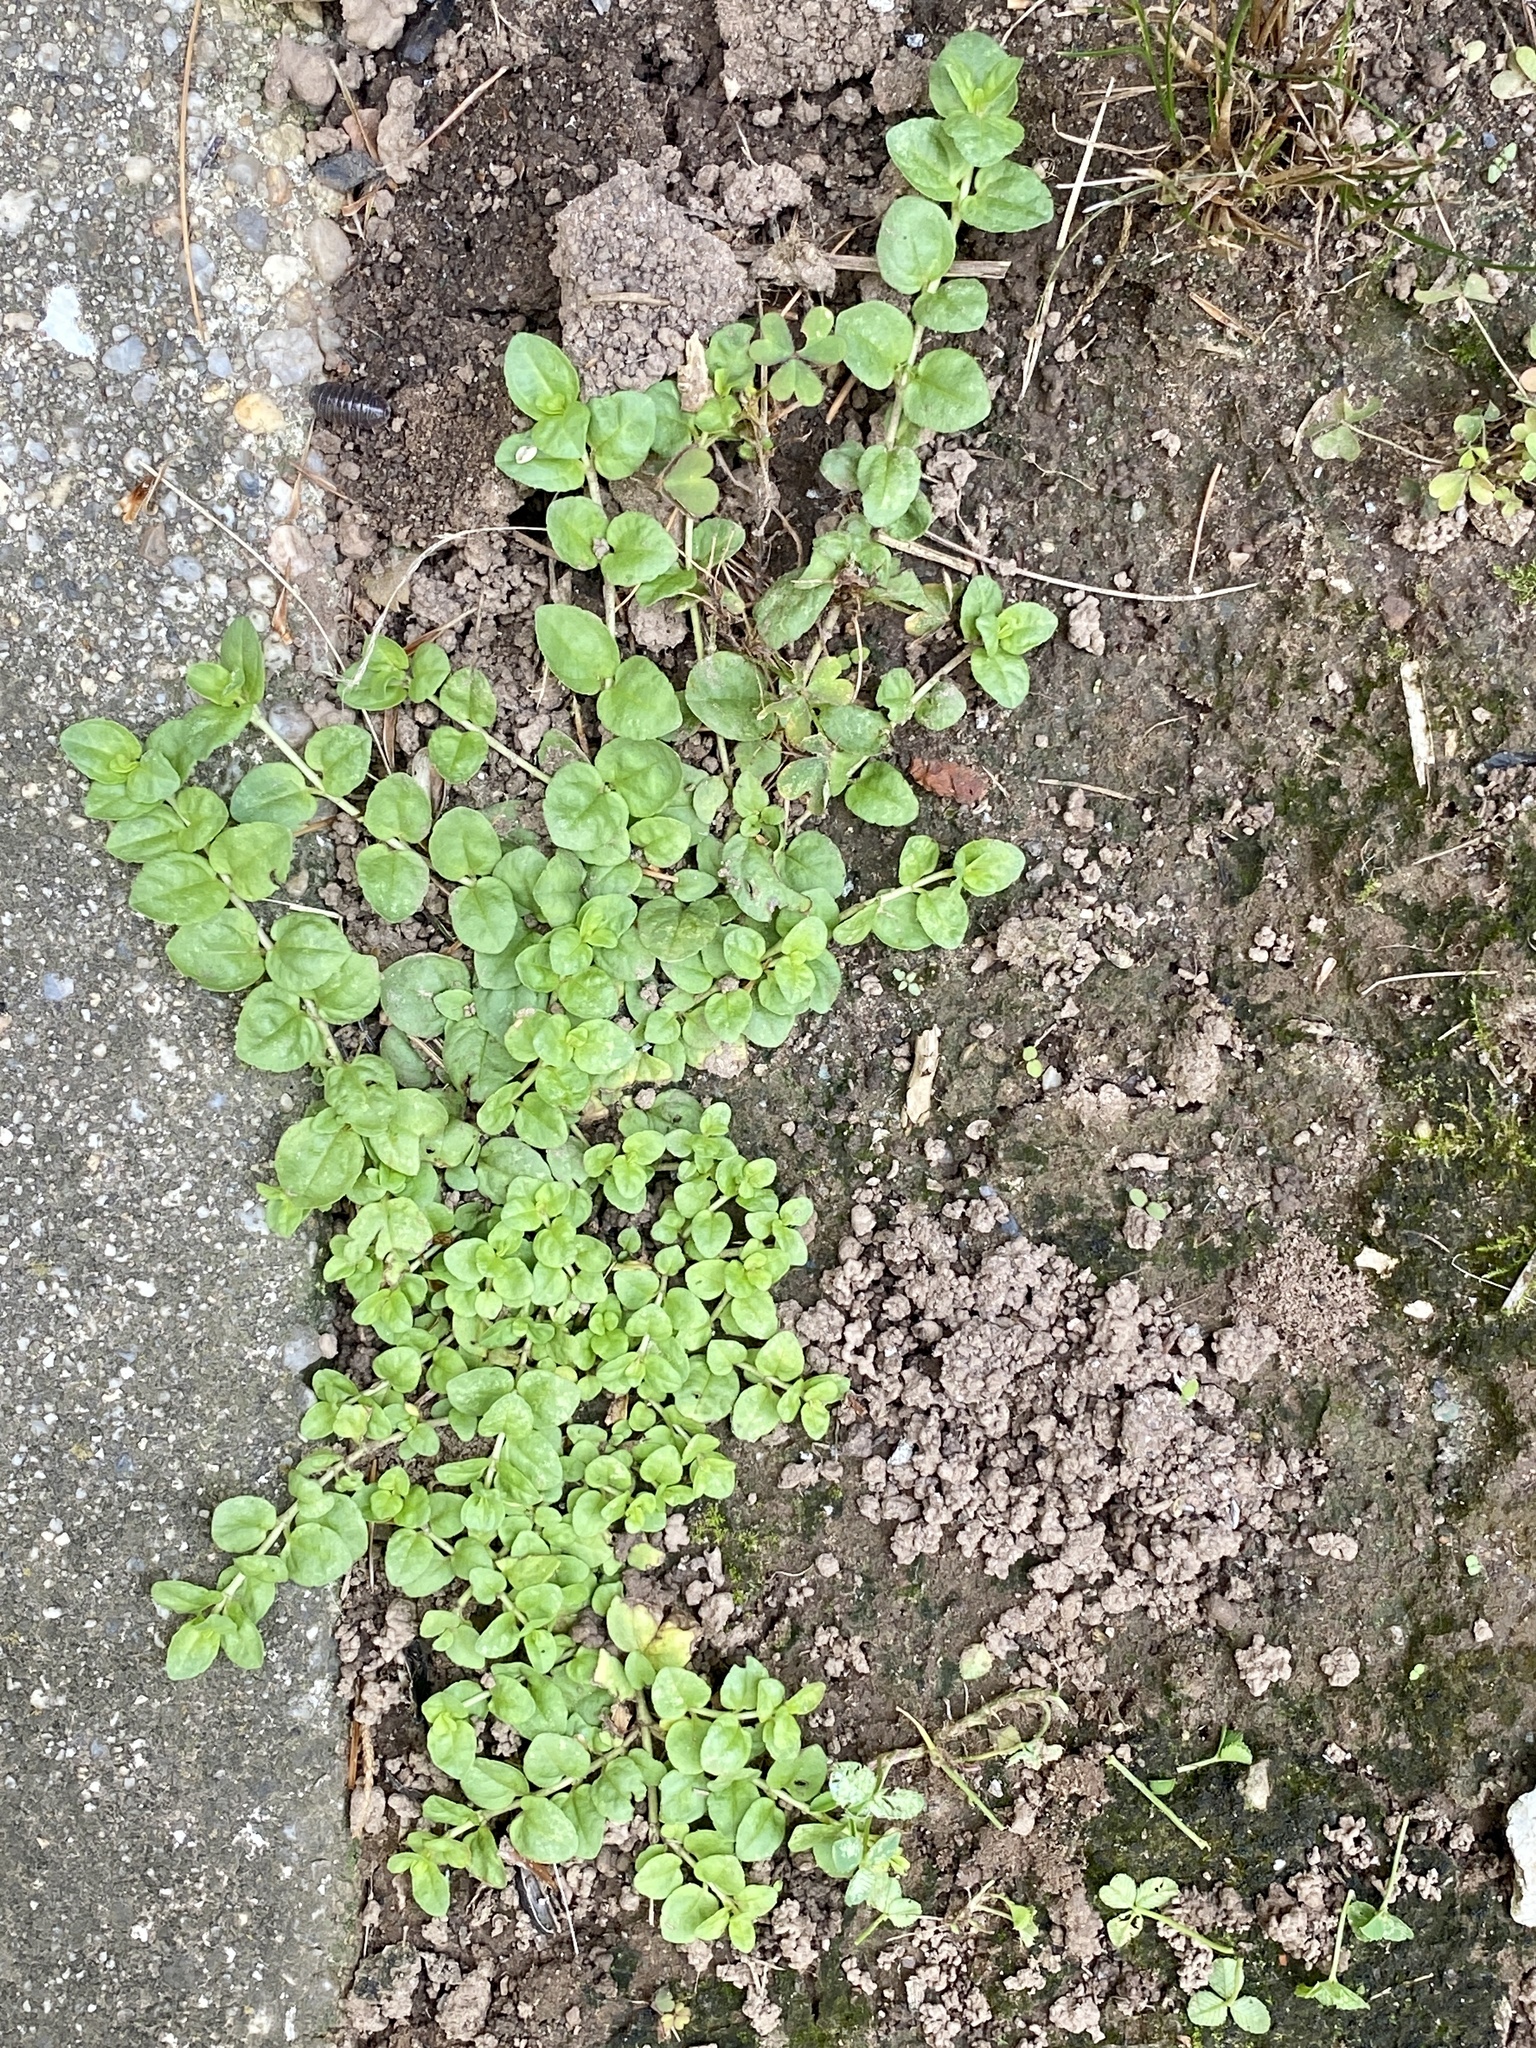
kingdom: Plantae
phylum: Tracheophyta
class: Magnoliopsida
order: Lamiales
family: Plantaginaceae
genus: Veronica
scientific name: Veronica serpyllifolia
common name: Thyme-leaved speedwell
